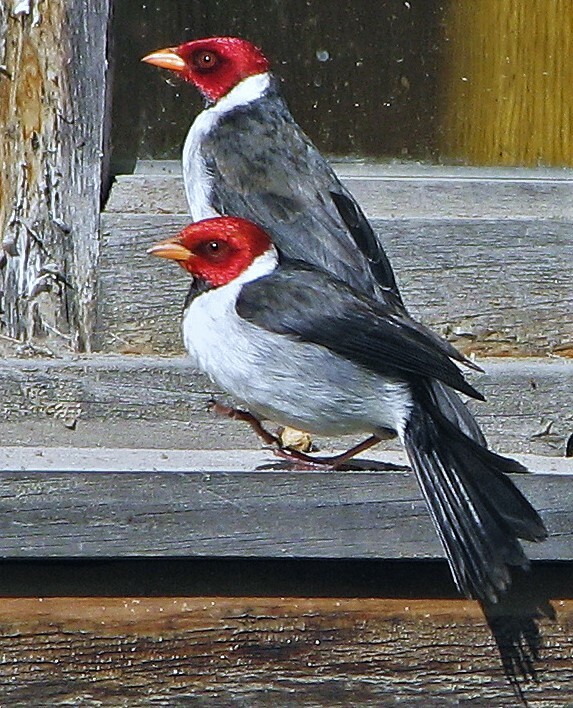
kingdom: Animalia
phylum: Chordata
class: Aves
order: Passeriformes
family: Thraupidae
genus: Paroaria
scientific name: Paroaria capitata
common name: Yellow-billed cardinal
